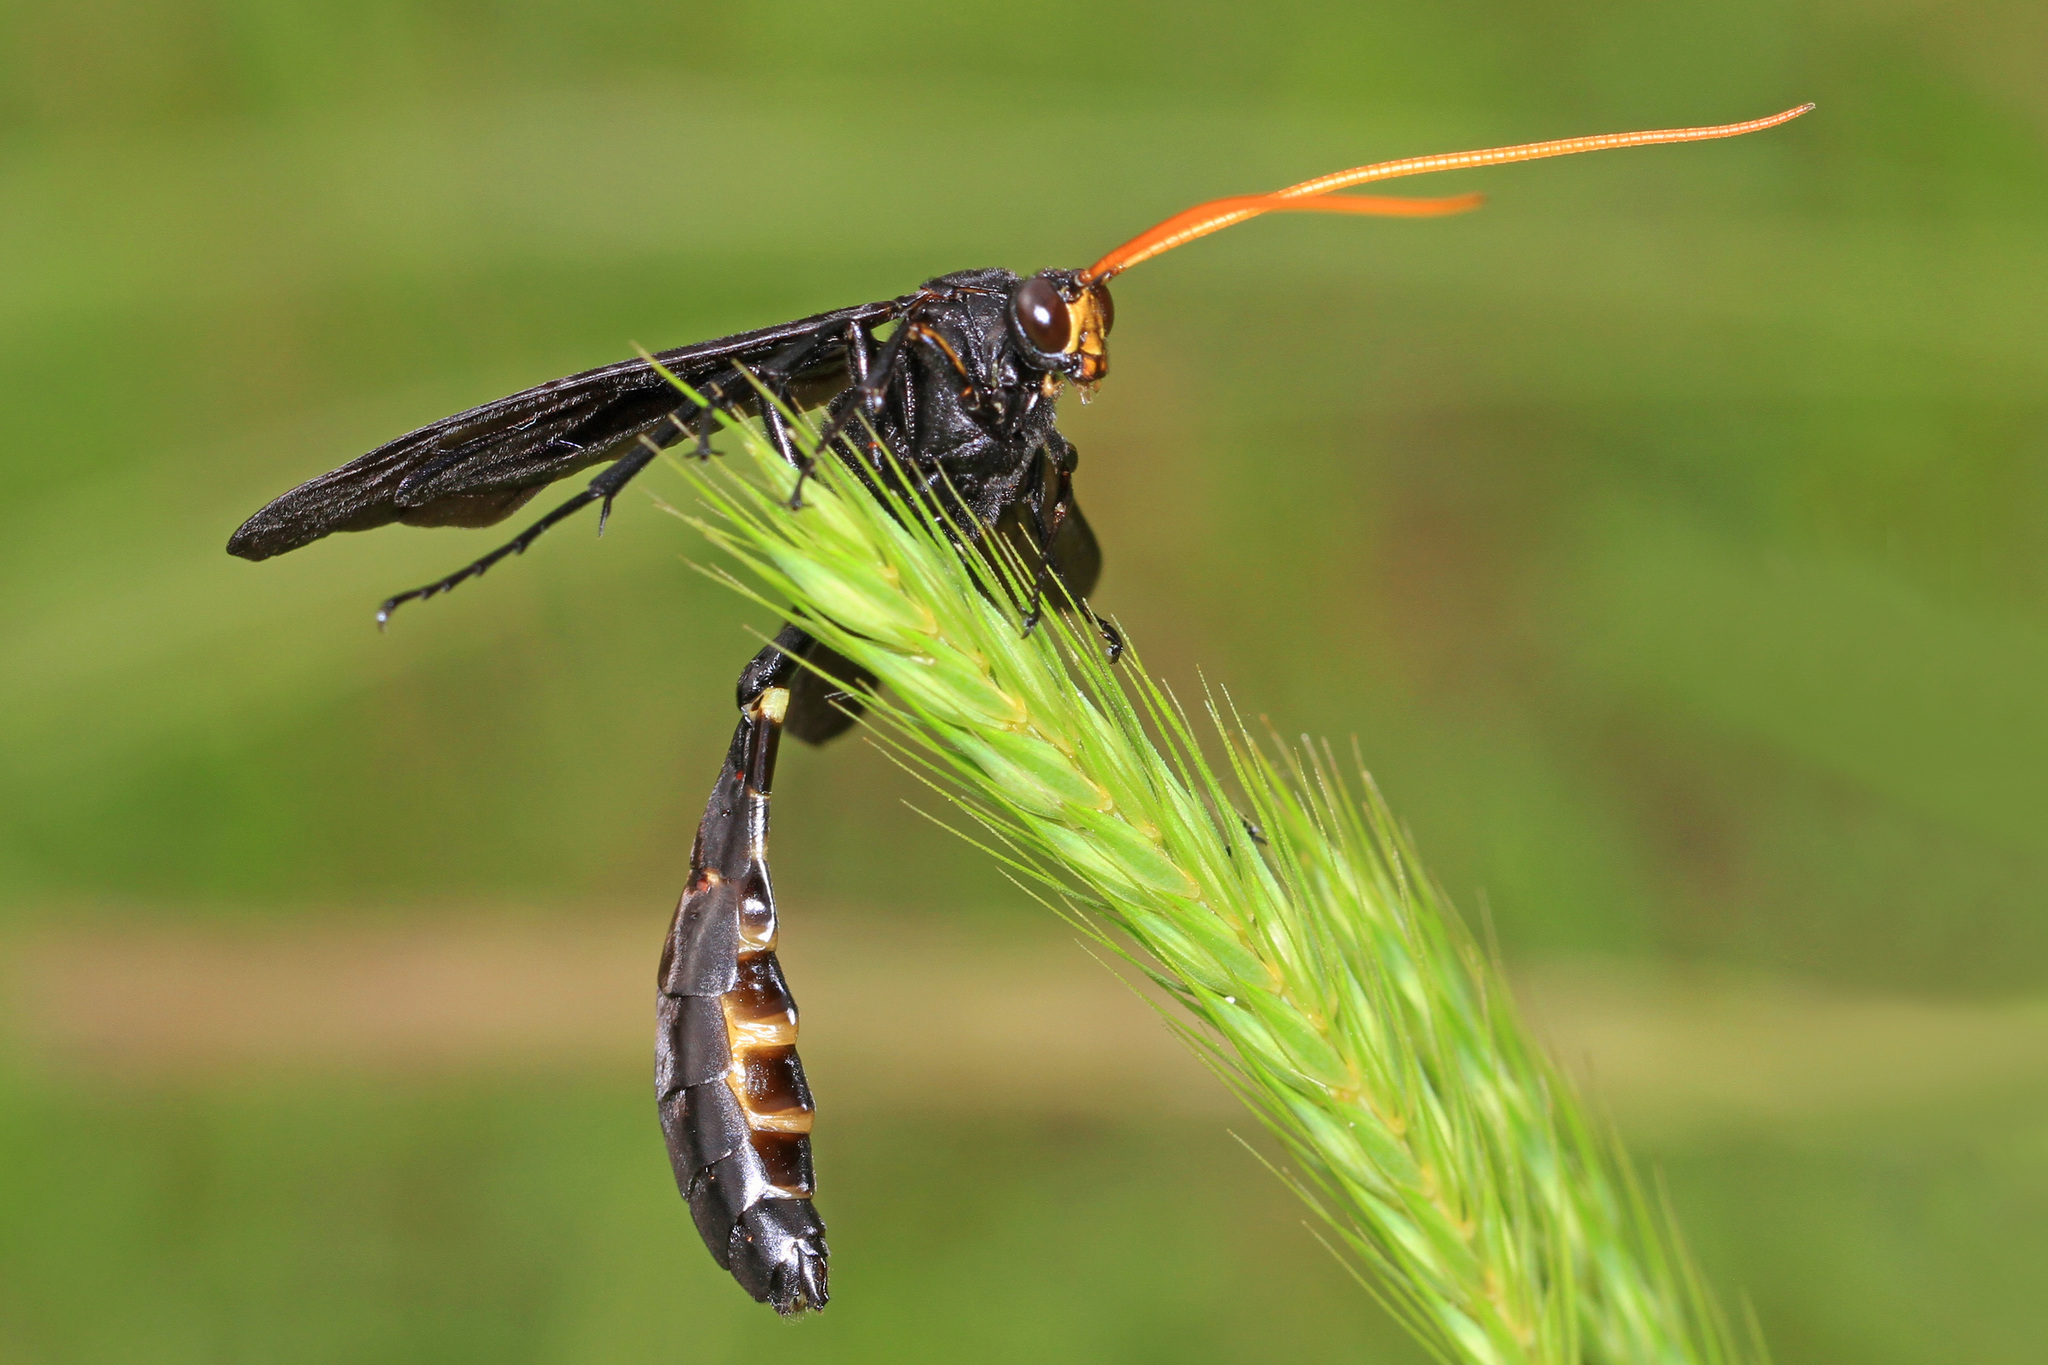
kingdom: Animalia
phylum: Arthropoda
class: Insecta
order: Hymenoptera
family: Ichneumonidae
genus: Thyreodon
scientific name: Thyreodon atricolor
